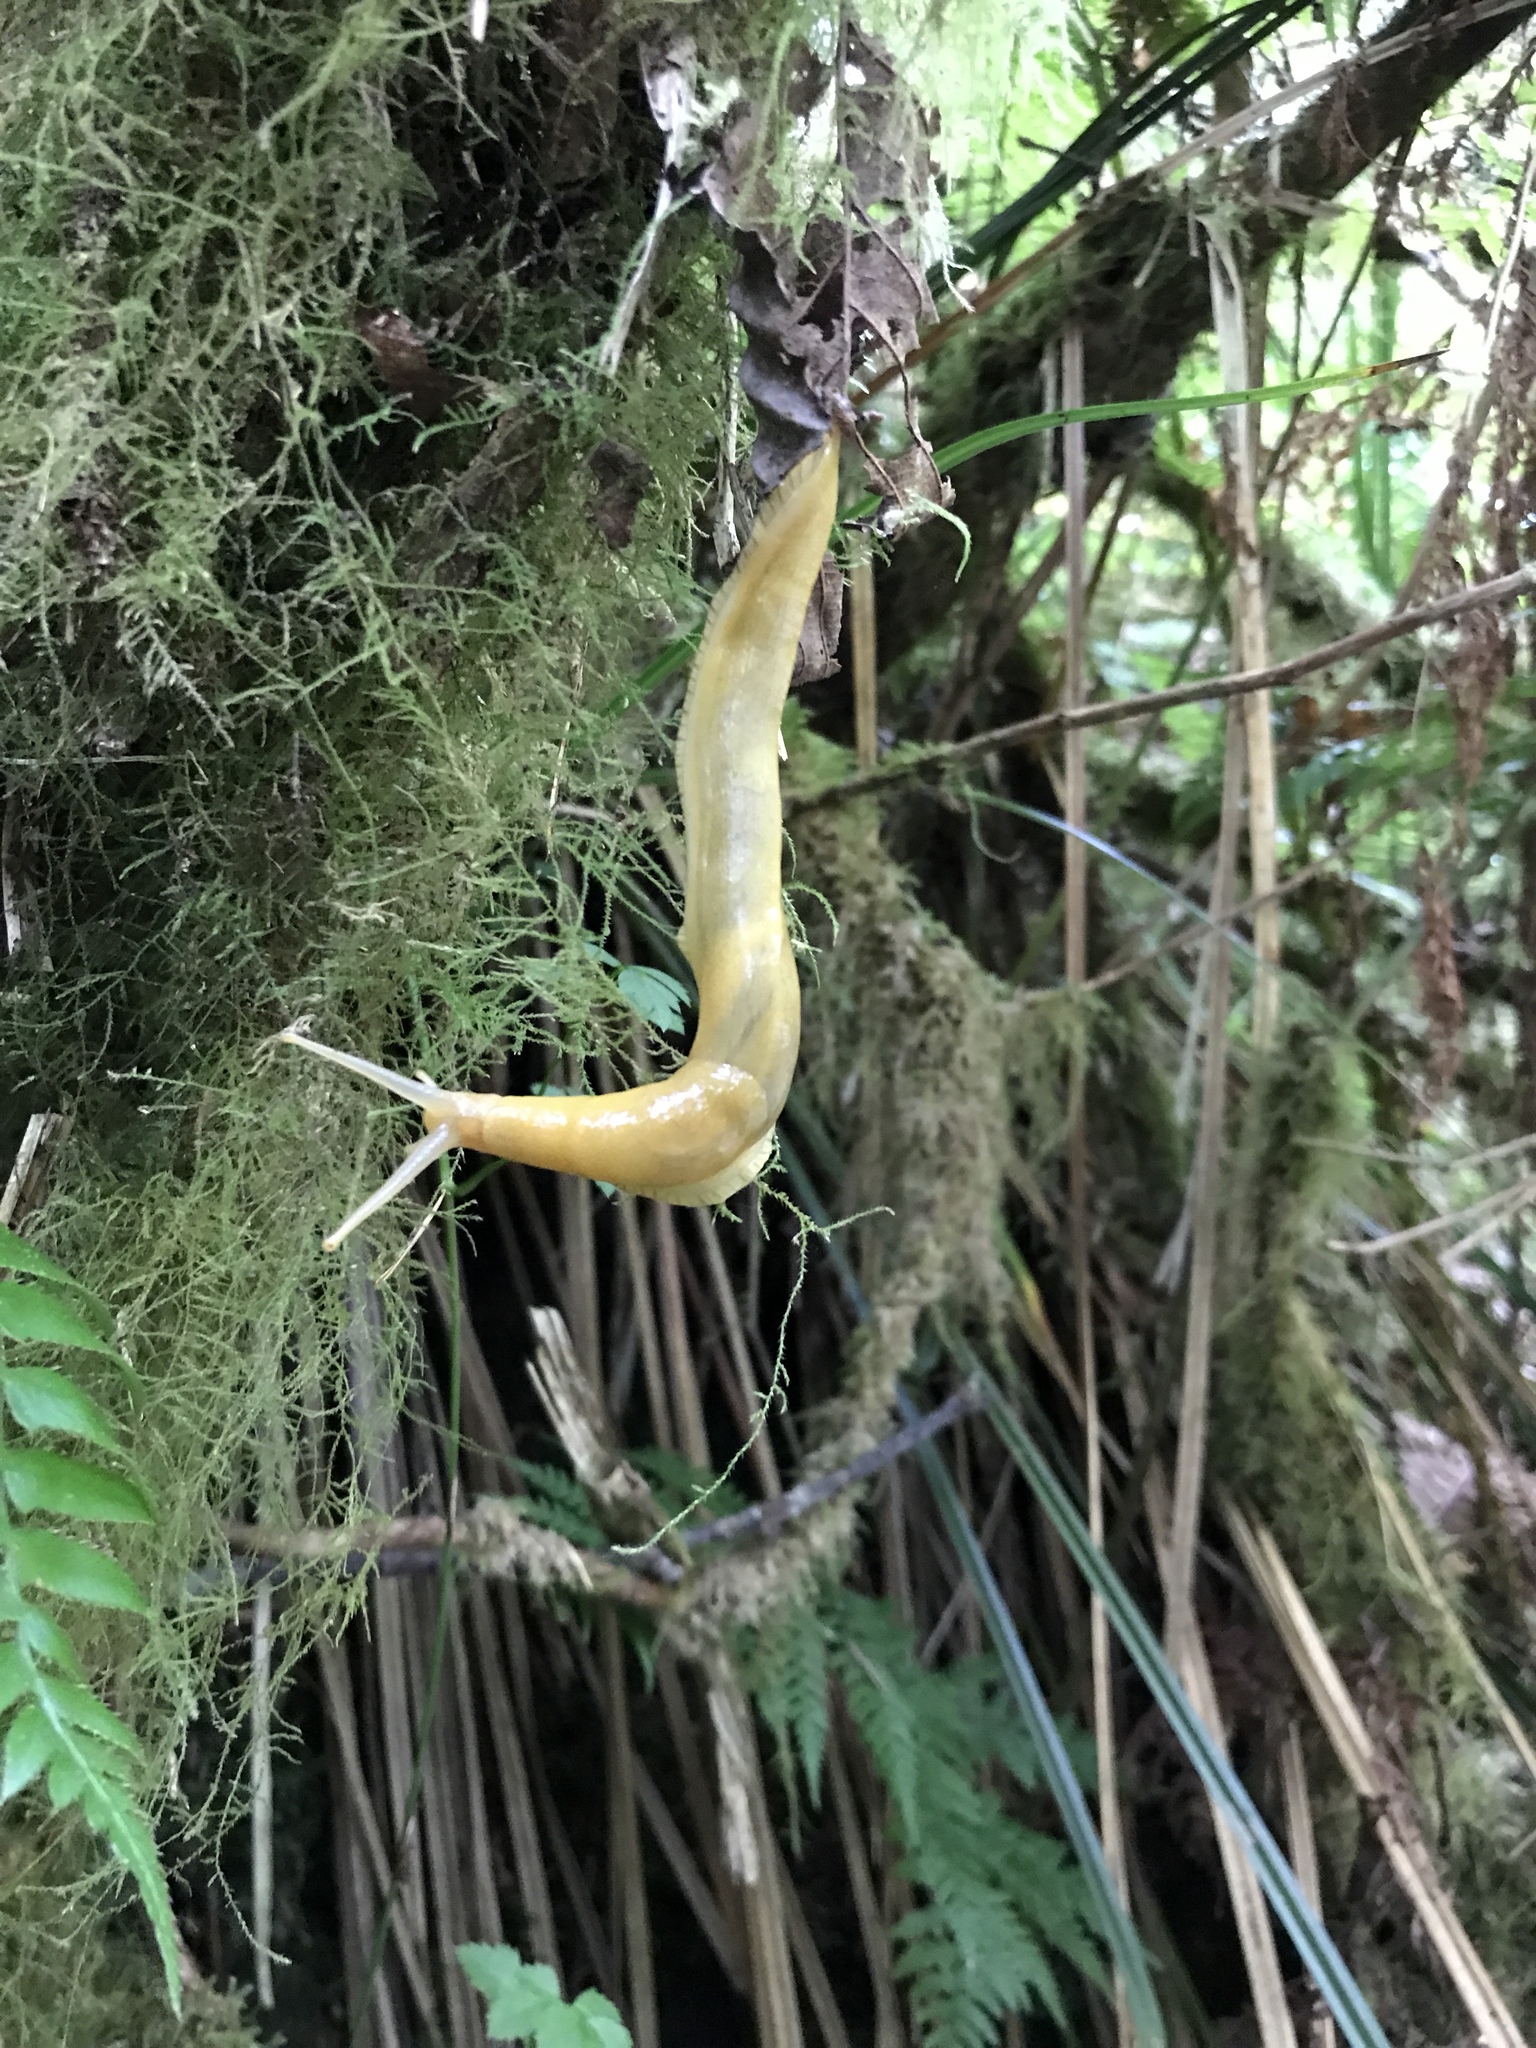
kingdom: Animalia
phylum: Mollusca
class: Gastropoda
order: Stylommatophora
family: Ariolimacidae
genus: Ariolimax
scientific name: Ariolimax columbianus
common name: Pacific banana slug
